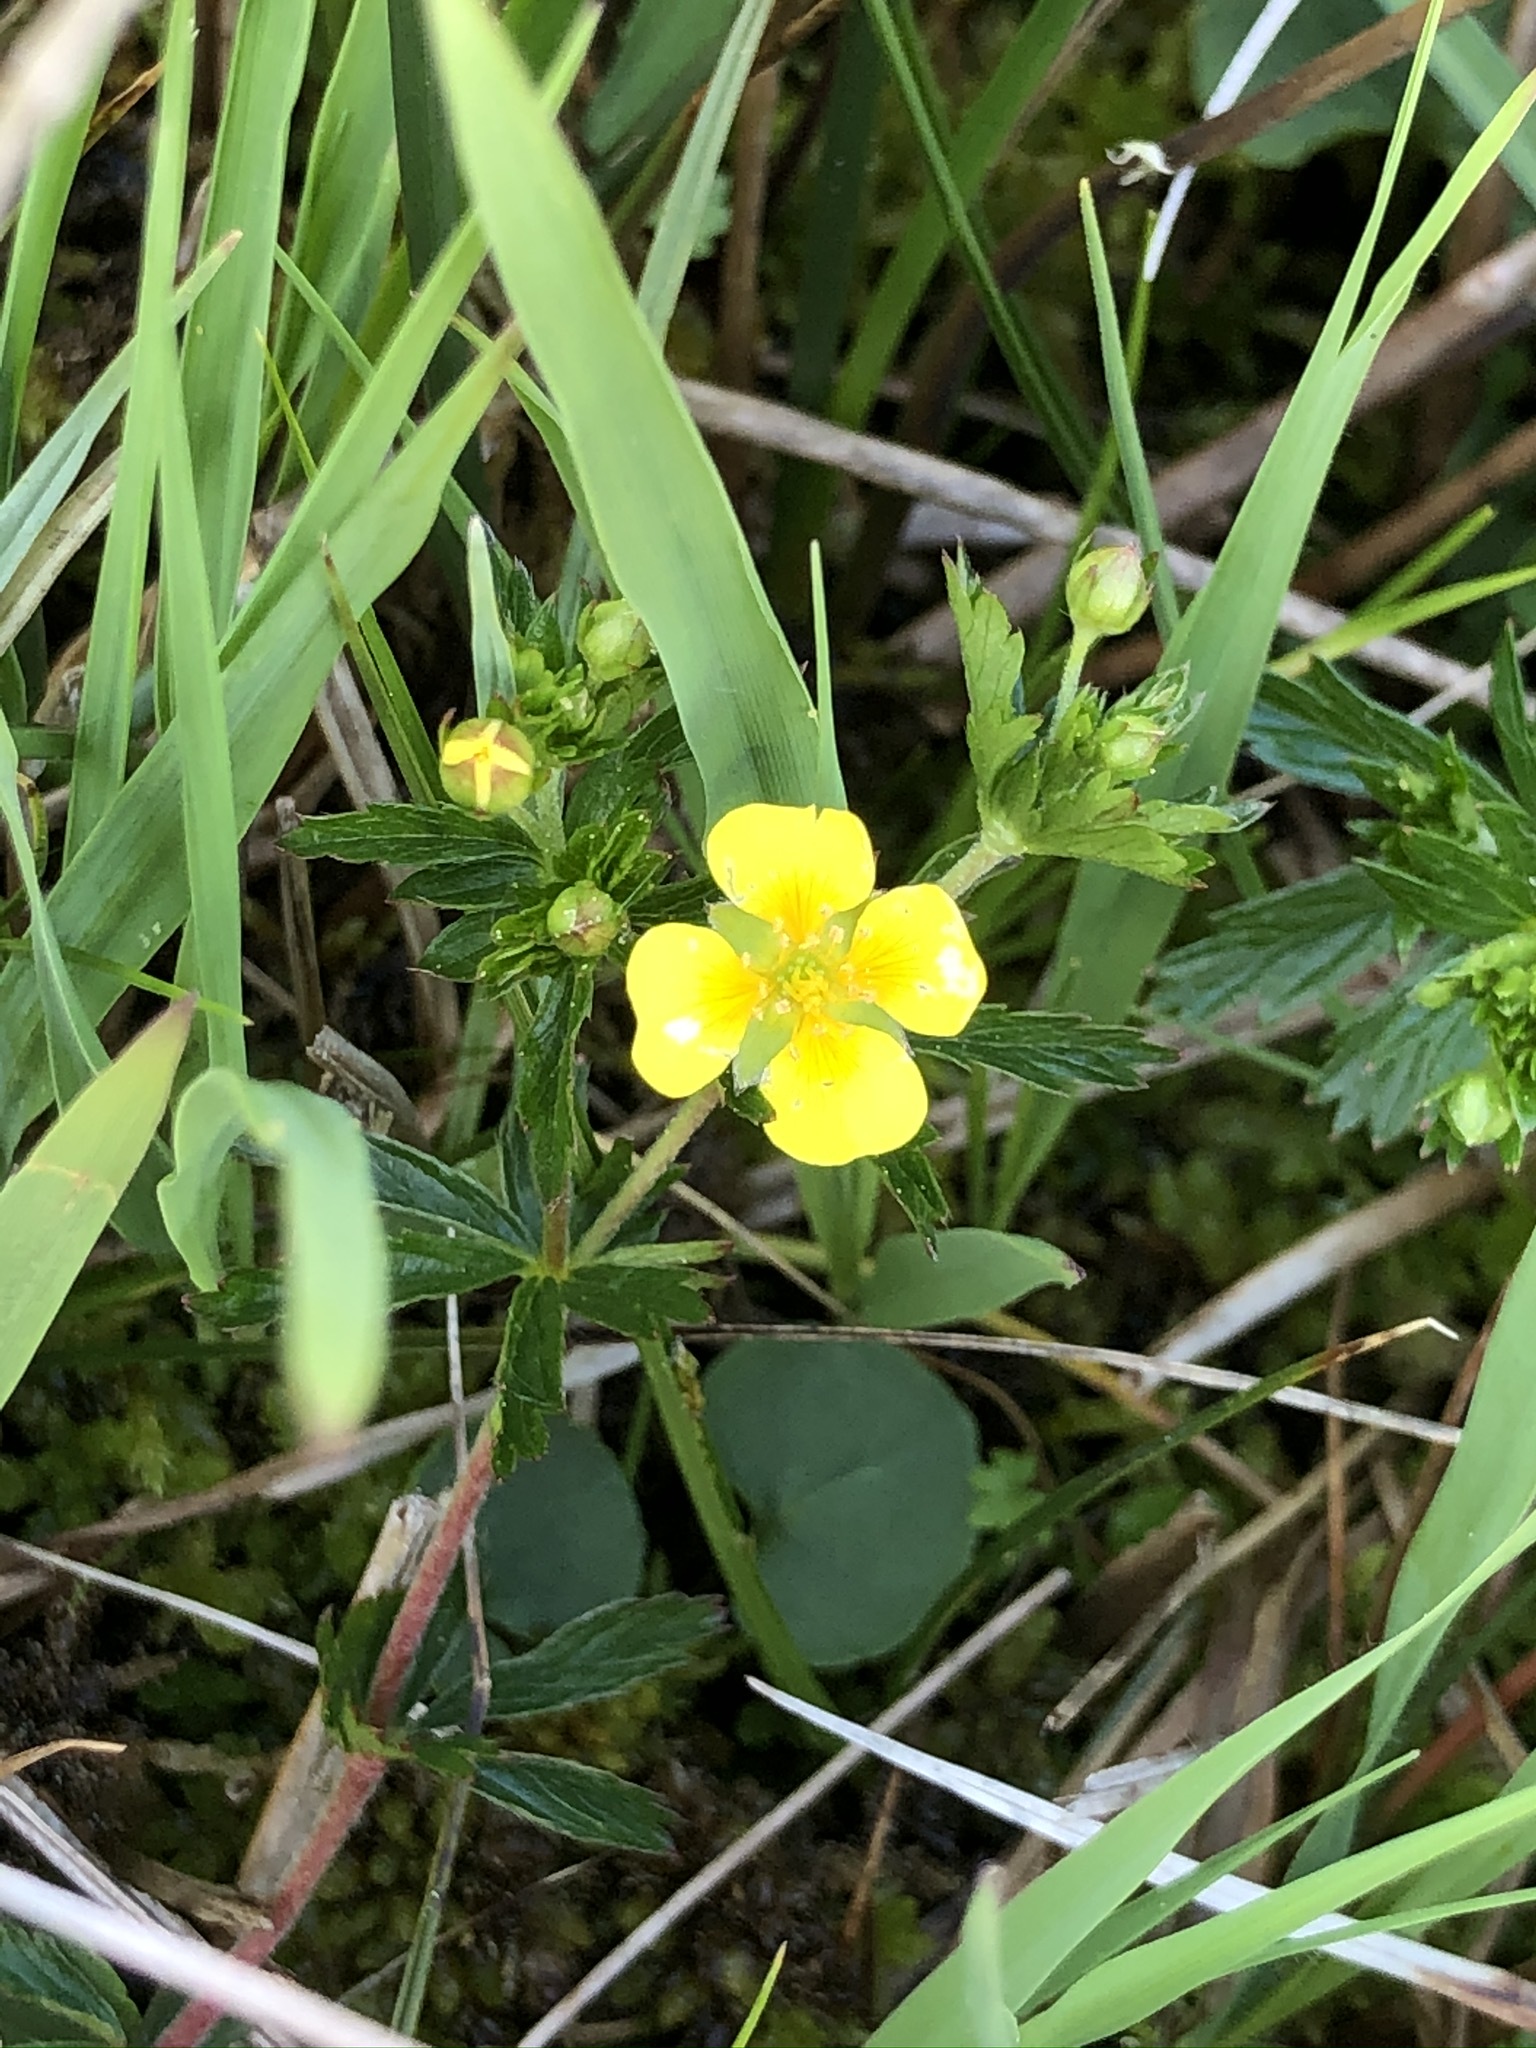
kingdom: Plantae
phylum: Tracheophyta
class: Magnoliopsida
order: Rosales
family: Rosaceae
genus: Potentilla
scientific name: Potentilla erecta
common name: Tormentil
